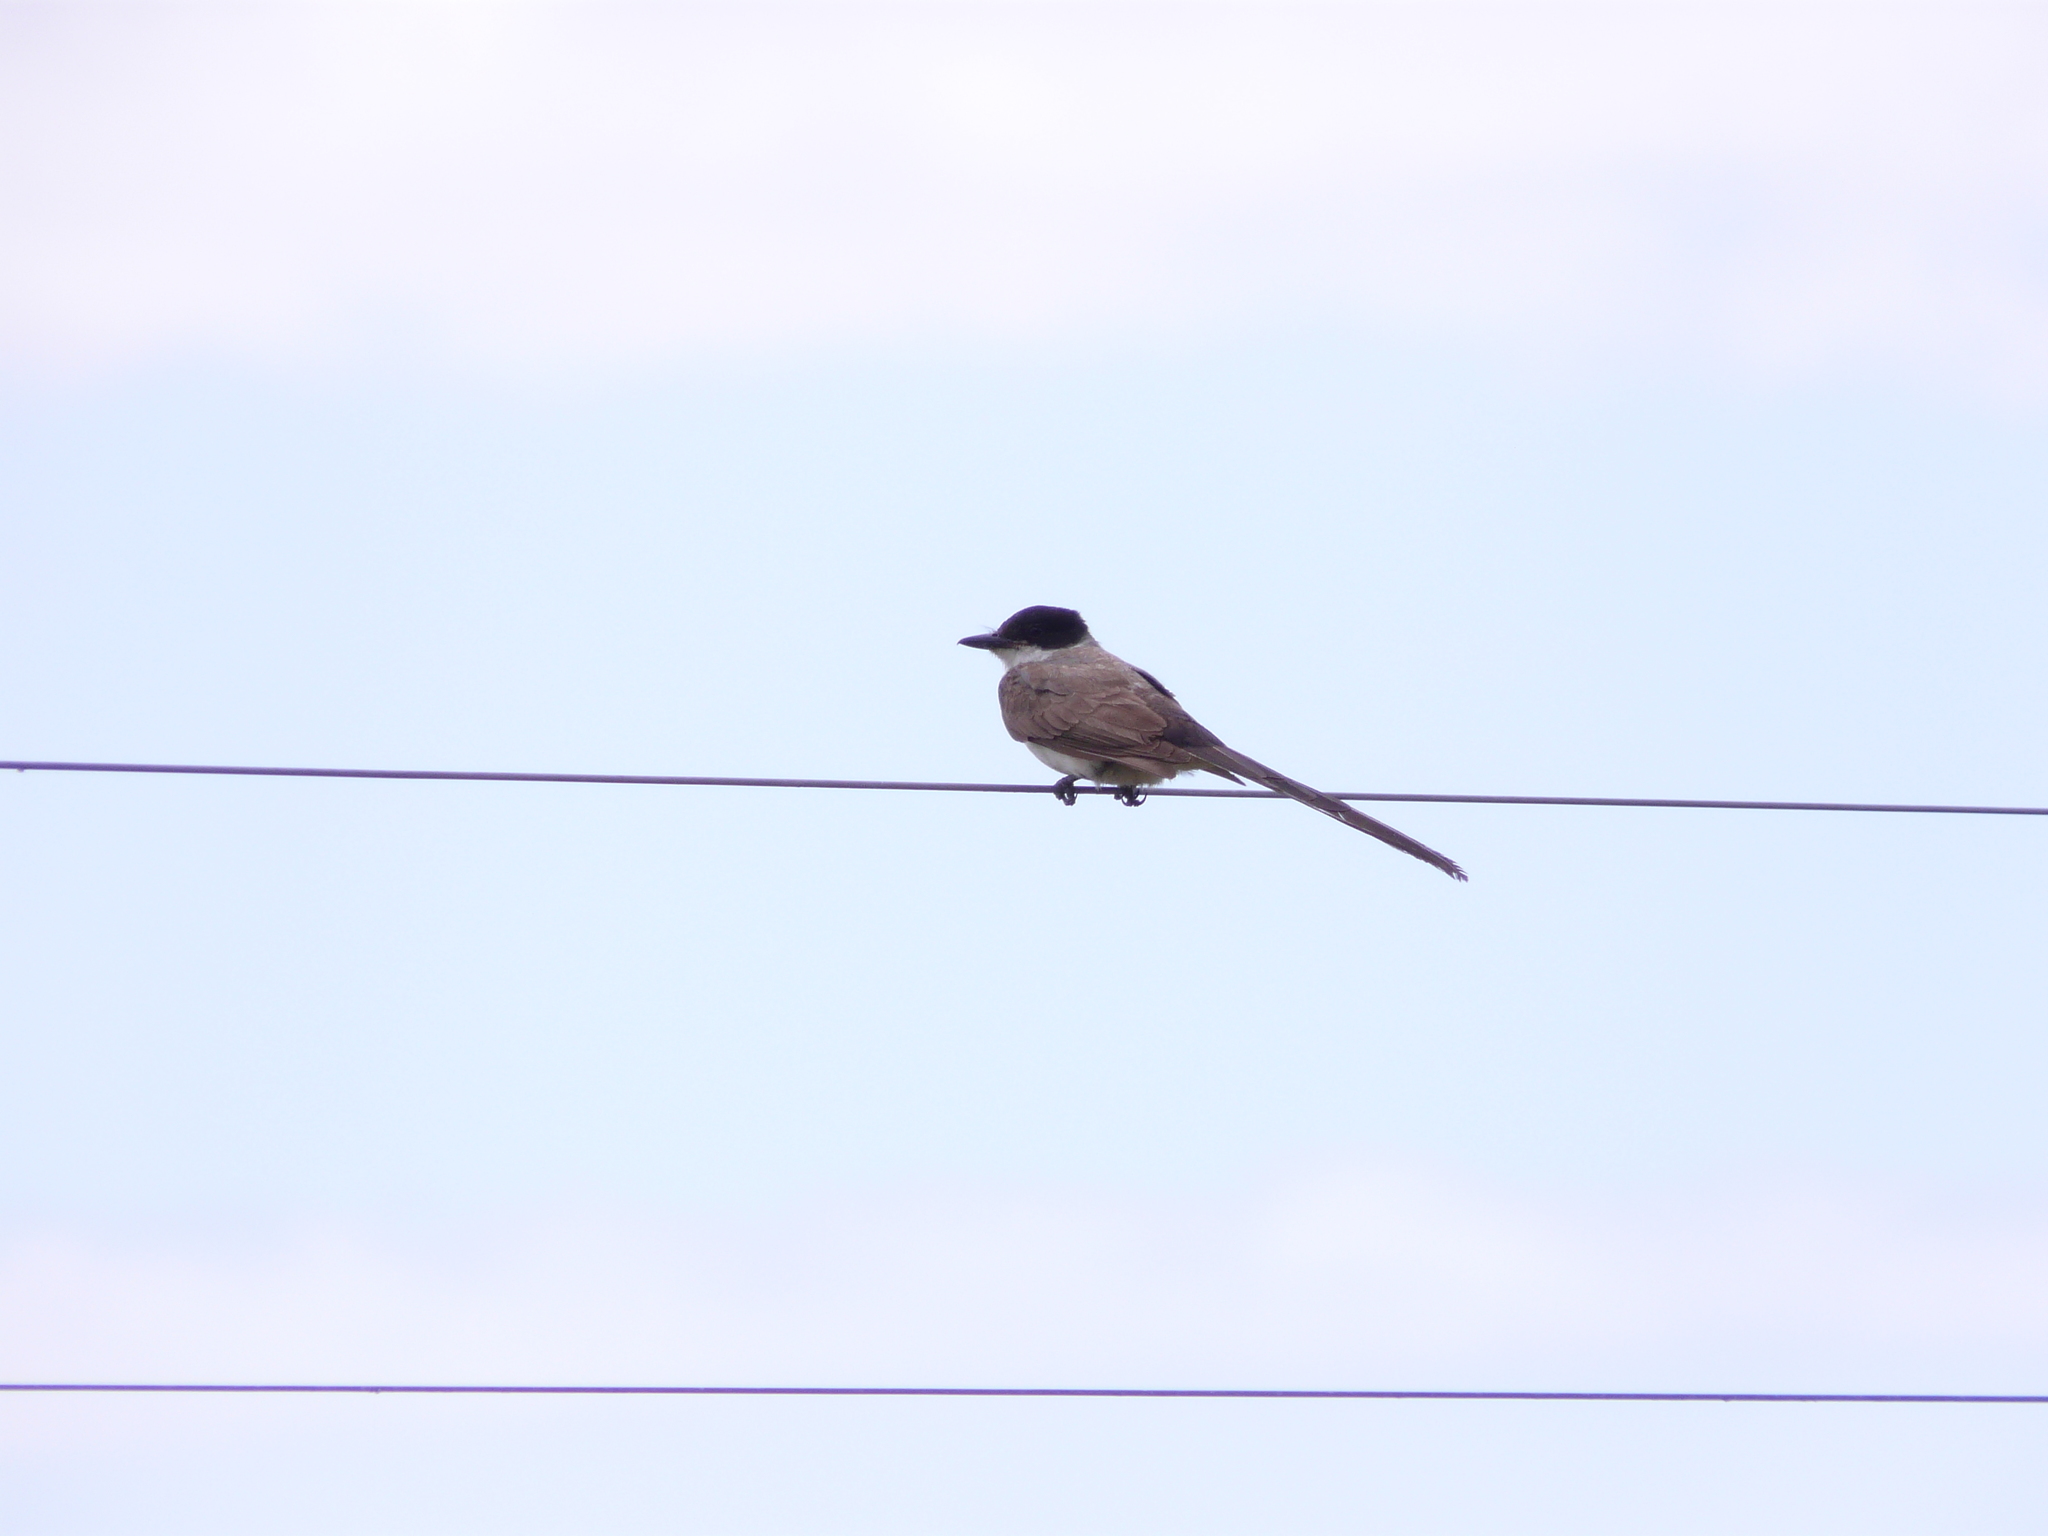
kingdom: Animalia
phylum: Chordata
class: Aves
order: Passeriformes
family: Tyrannidae
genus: Tyrannus
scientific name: Tyrannus savana
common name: Fork-tailed flycatcher
